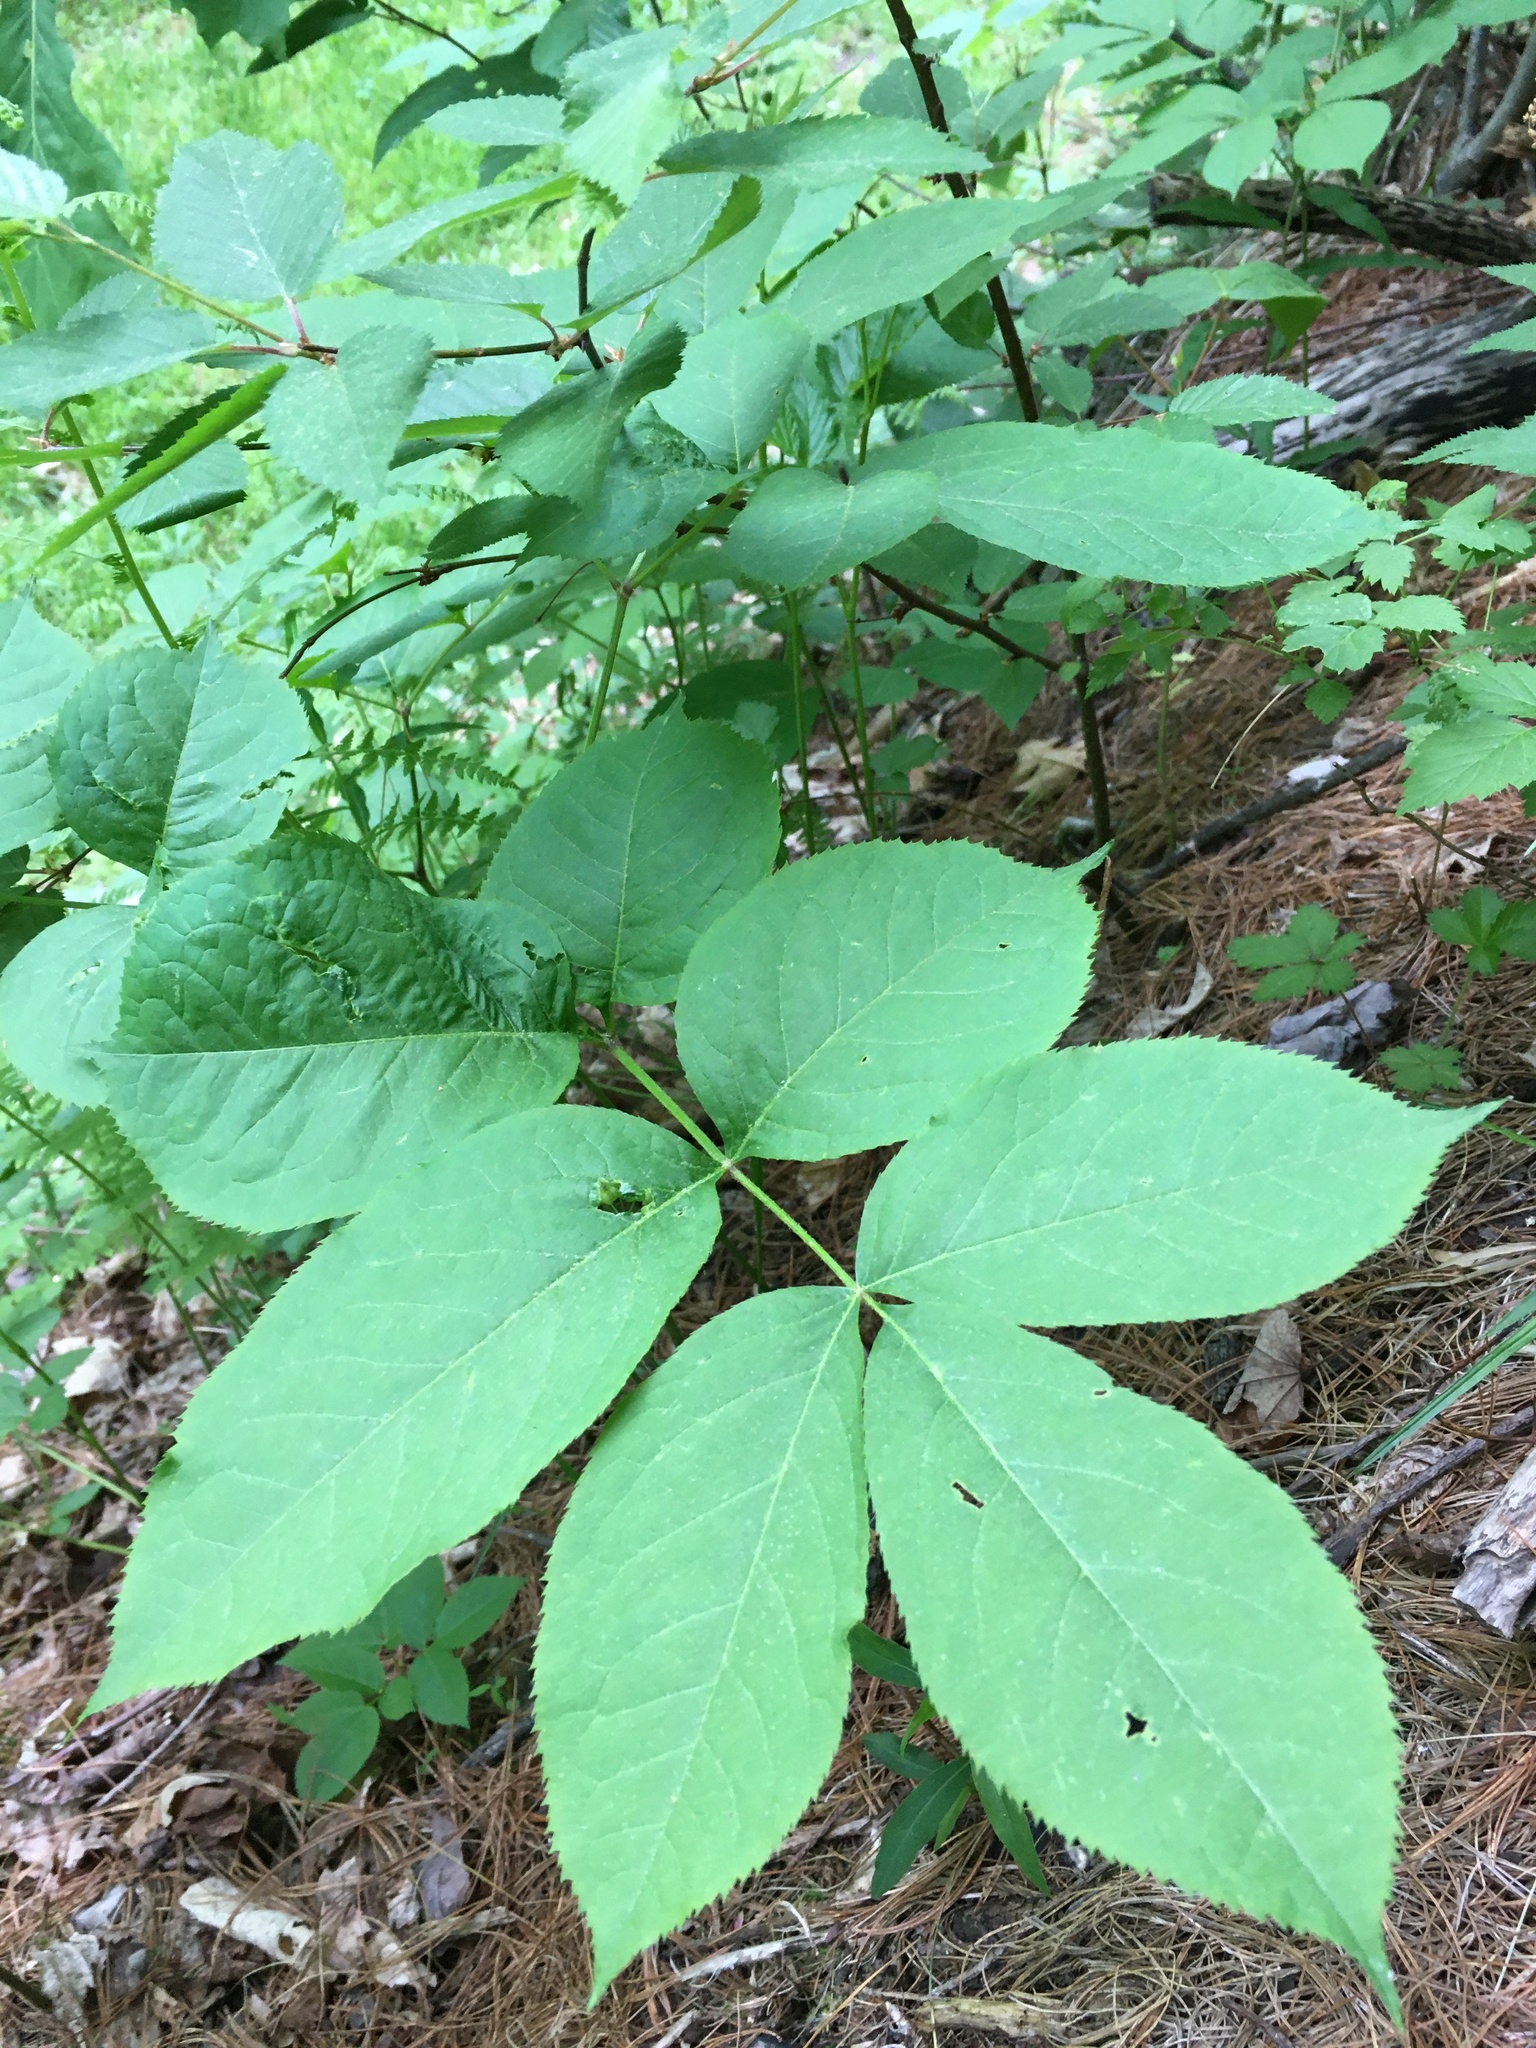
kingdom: Plantae
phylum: Tracheophyta
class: Magnoliopsida
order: Apiales
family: Araliaceae
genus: Aralia
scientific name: Aralia nudicaulis
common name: Wild sarsaparilla
